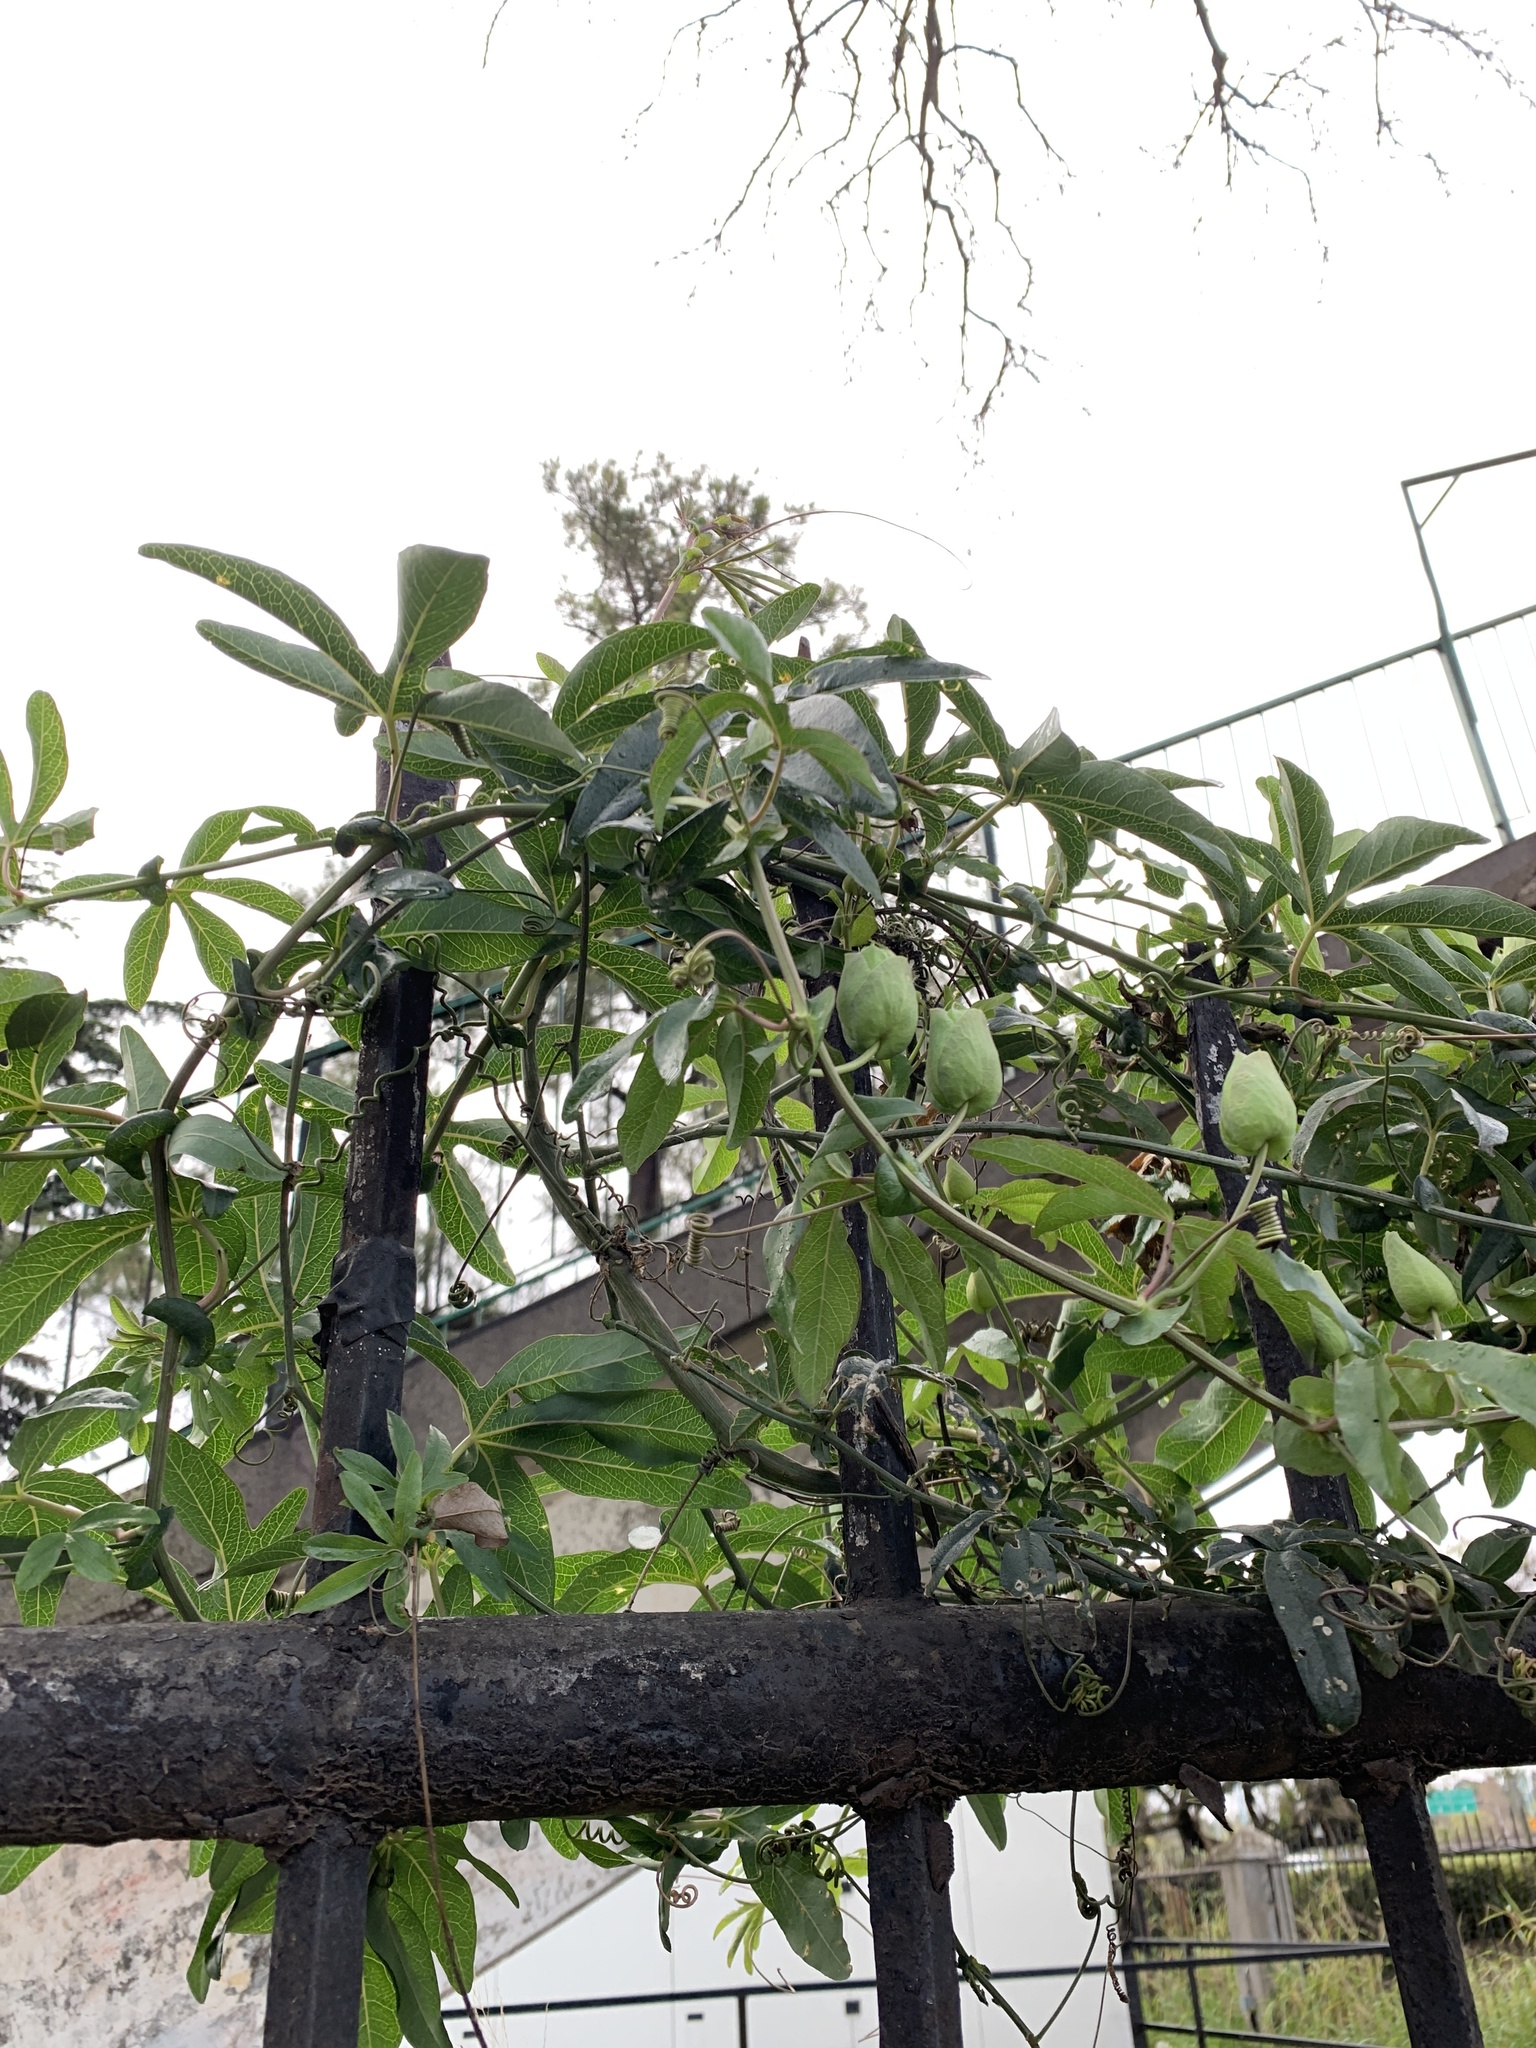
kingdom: Plantae
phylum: Tracheophyta
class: Magnoliopsida
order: Malpighiales
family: Passifloraceae
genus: Passiflora
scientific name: Passiflora caerulea
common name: Blue passionflower
